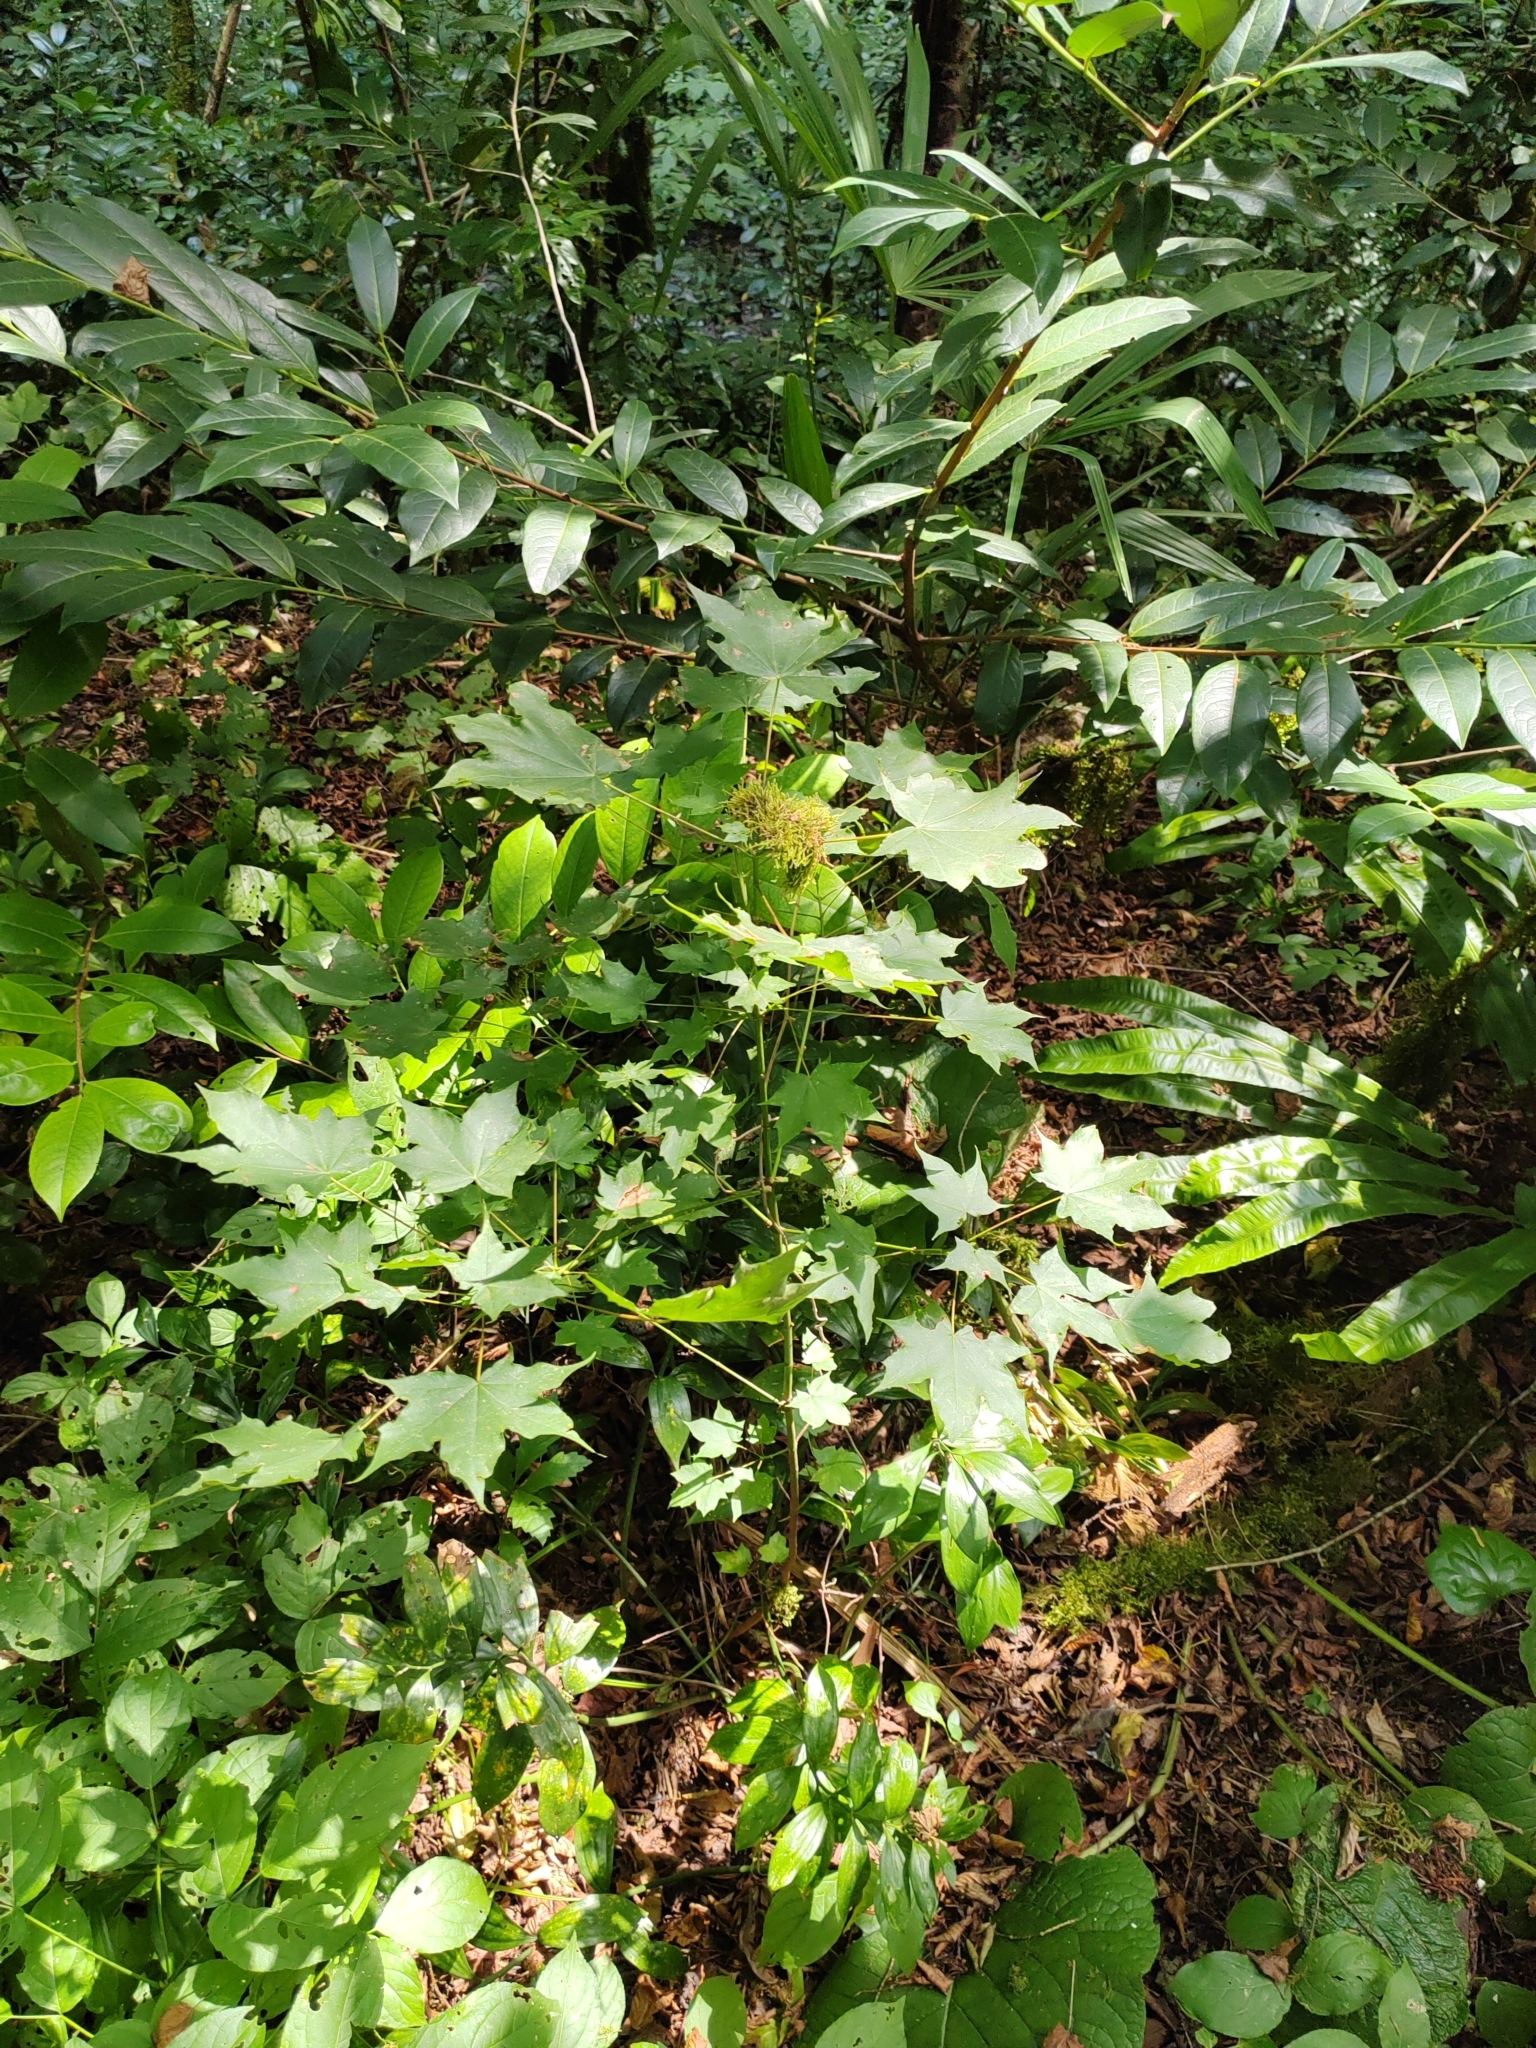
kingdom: Plantae
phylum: Tracheophyta
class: Magnoliopsida
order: Sapindales
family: Sapindaceae
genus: Acer
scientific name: Acer cappadocicum
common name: Cappadocian maple
